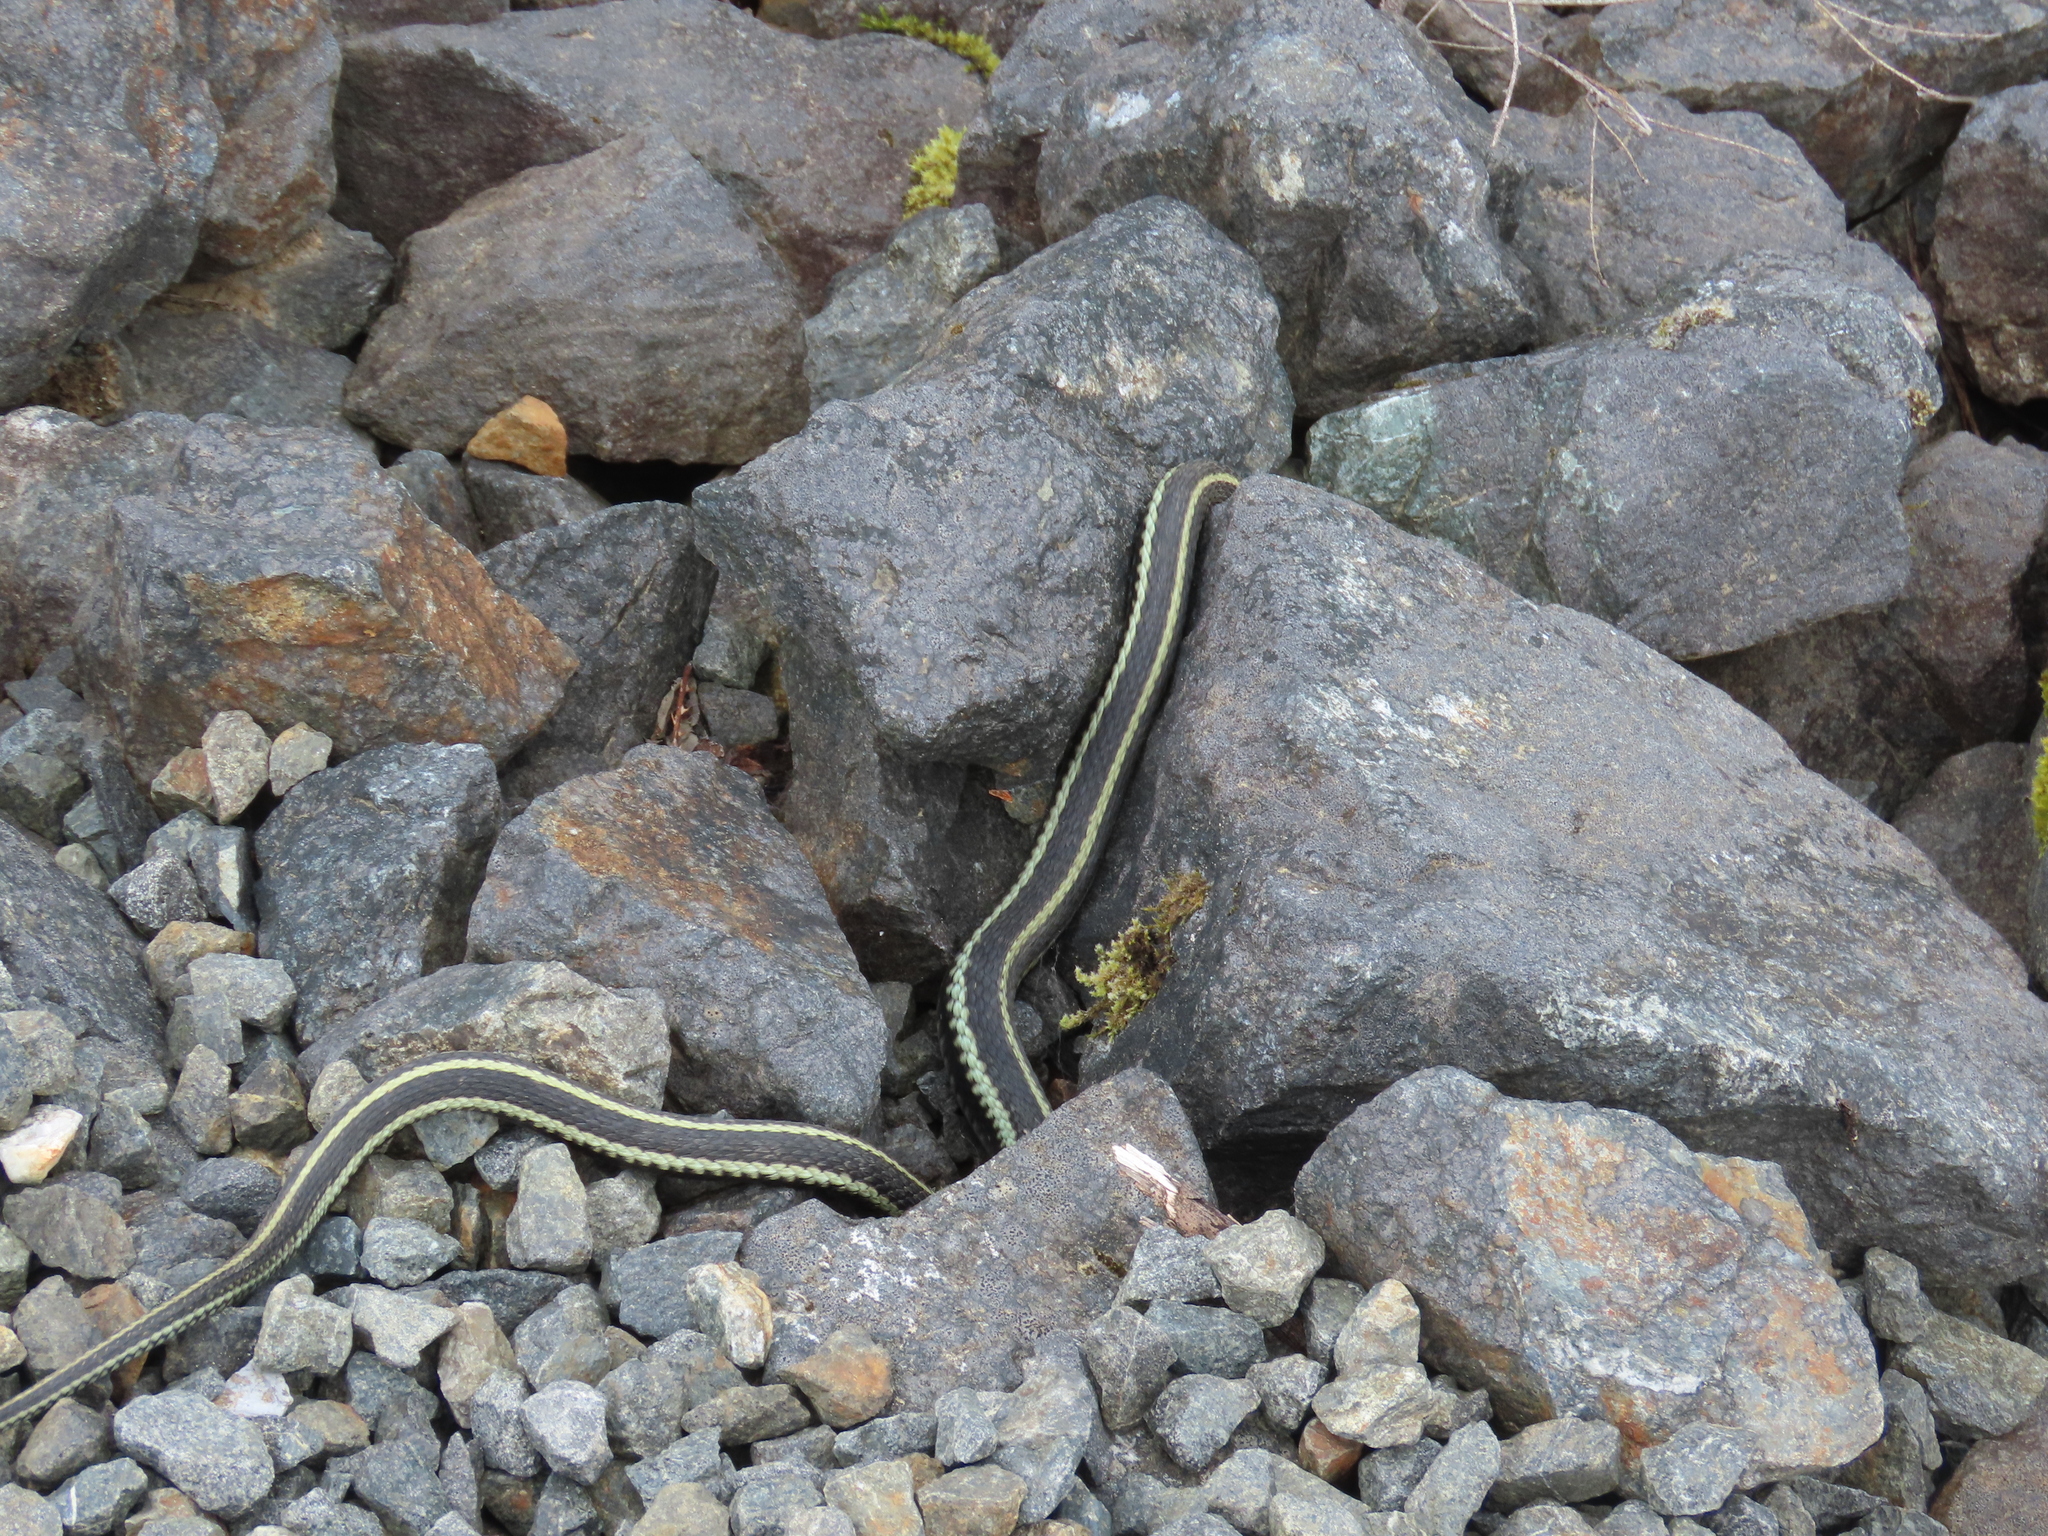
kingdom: Animalia
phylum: Chordata
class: Squamata
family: Colubridae
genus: Thamnophis
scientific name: Thamnophis sirtalis
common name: Common garter snake
